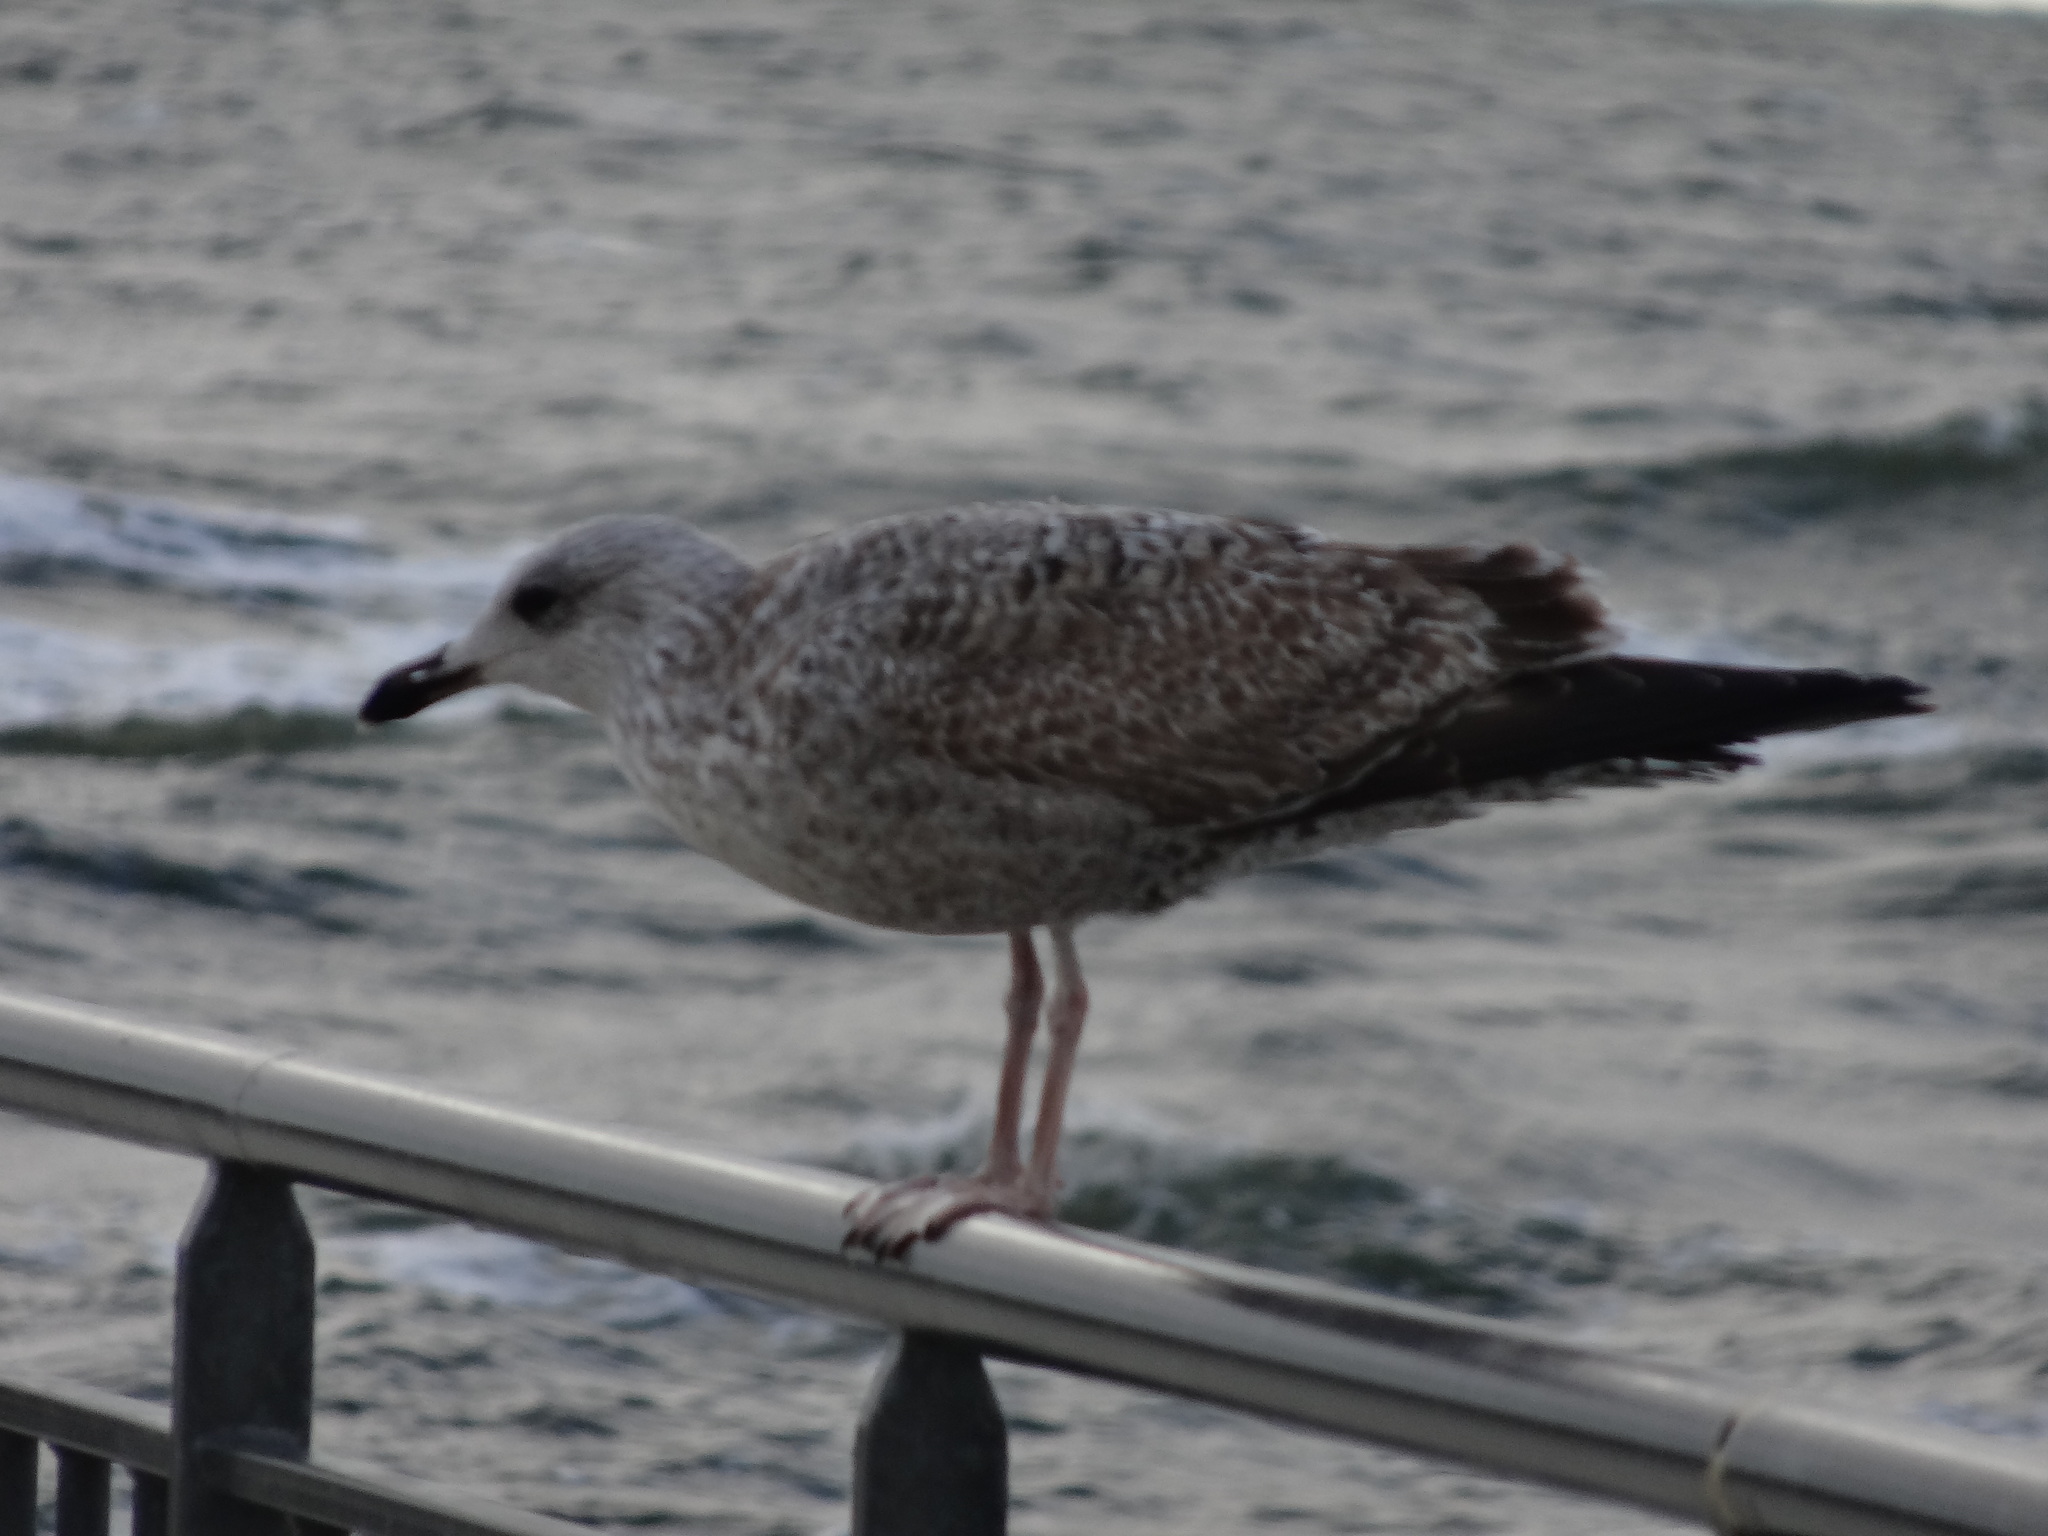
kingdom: Animalia
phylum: Chordata
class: Aves
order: Charadriiformes
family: Laridae
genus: Larus
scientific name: Larus argentatus
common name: Herring gull
